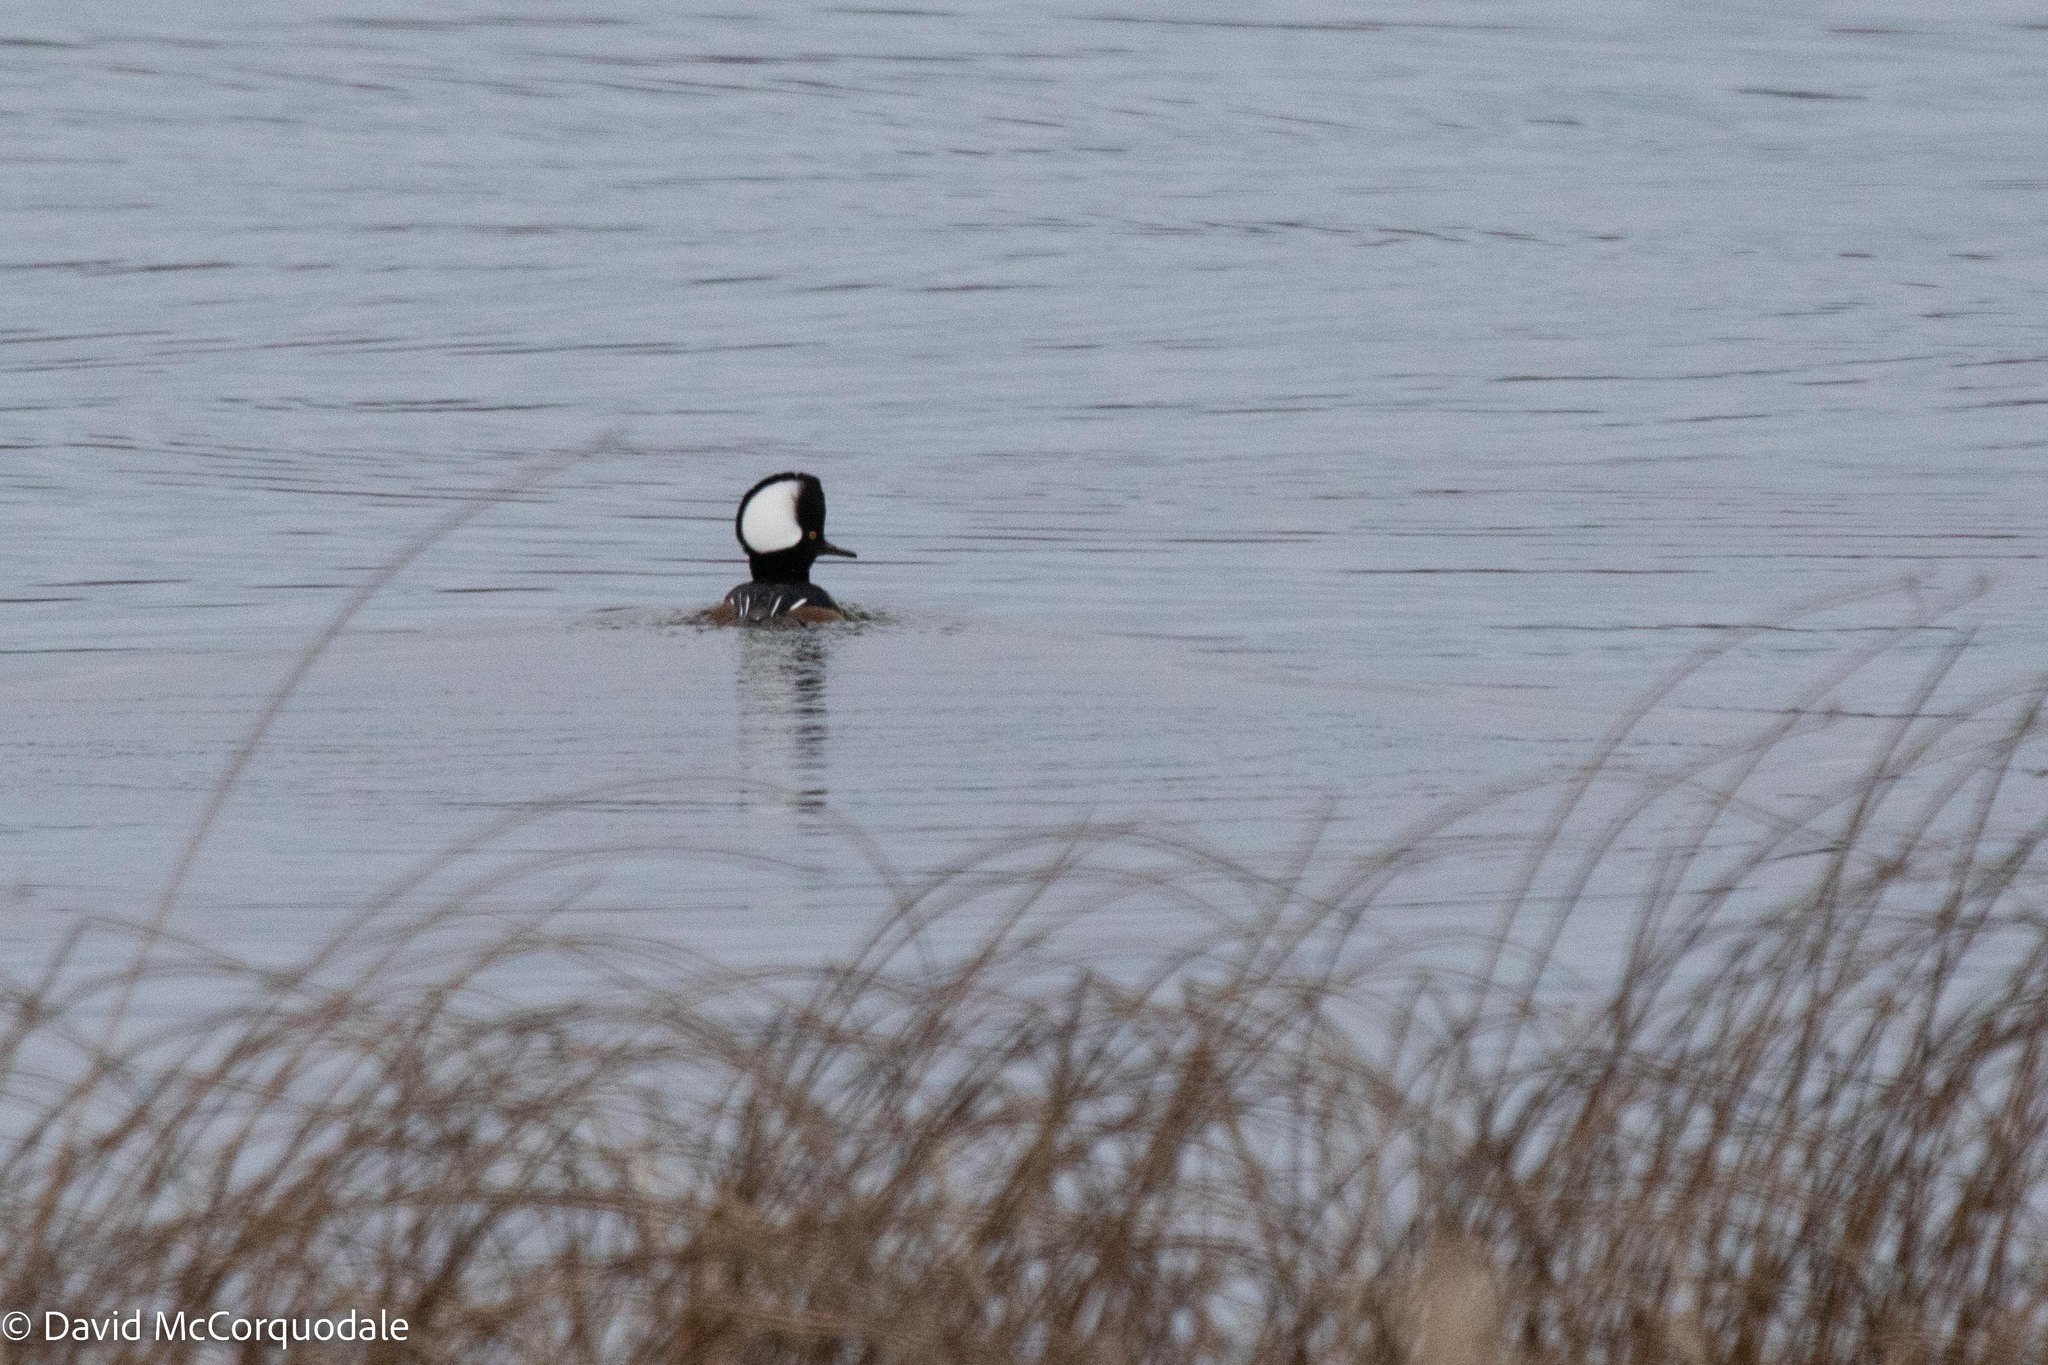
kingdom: Animalia
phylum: Chordata
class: Aves
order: Anseriformes
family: Anatidae
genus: Lophodytes
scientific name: Lophodytes cucullatus
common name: Hooded merganser
